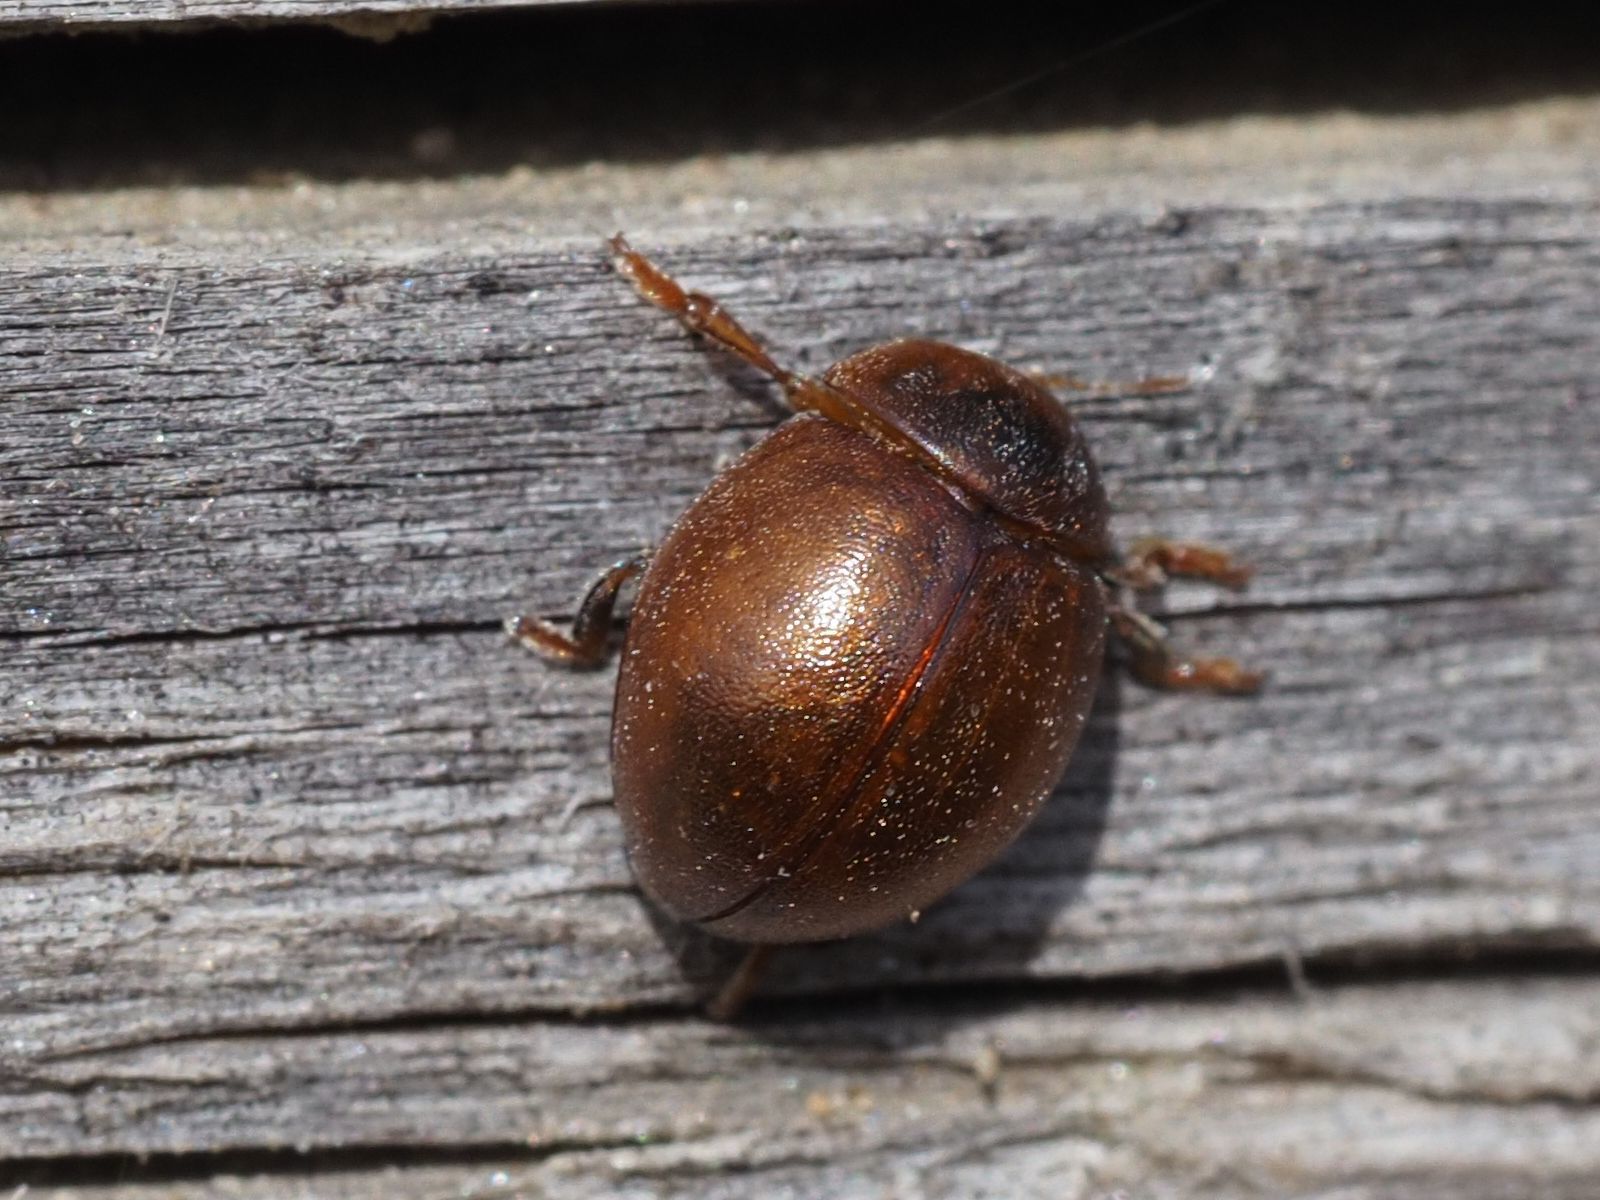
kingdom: Animalia
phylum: Arthropoda
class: Insecta
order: Coleoptera
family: Coccinellidae
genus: Cynegetis
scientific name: Cynegetis impunctata
